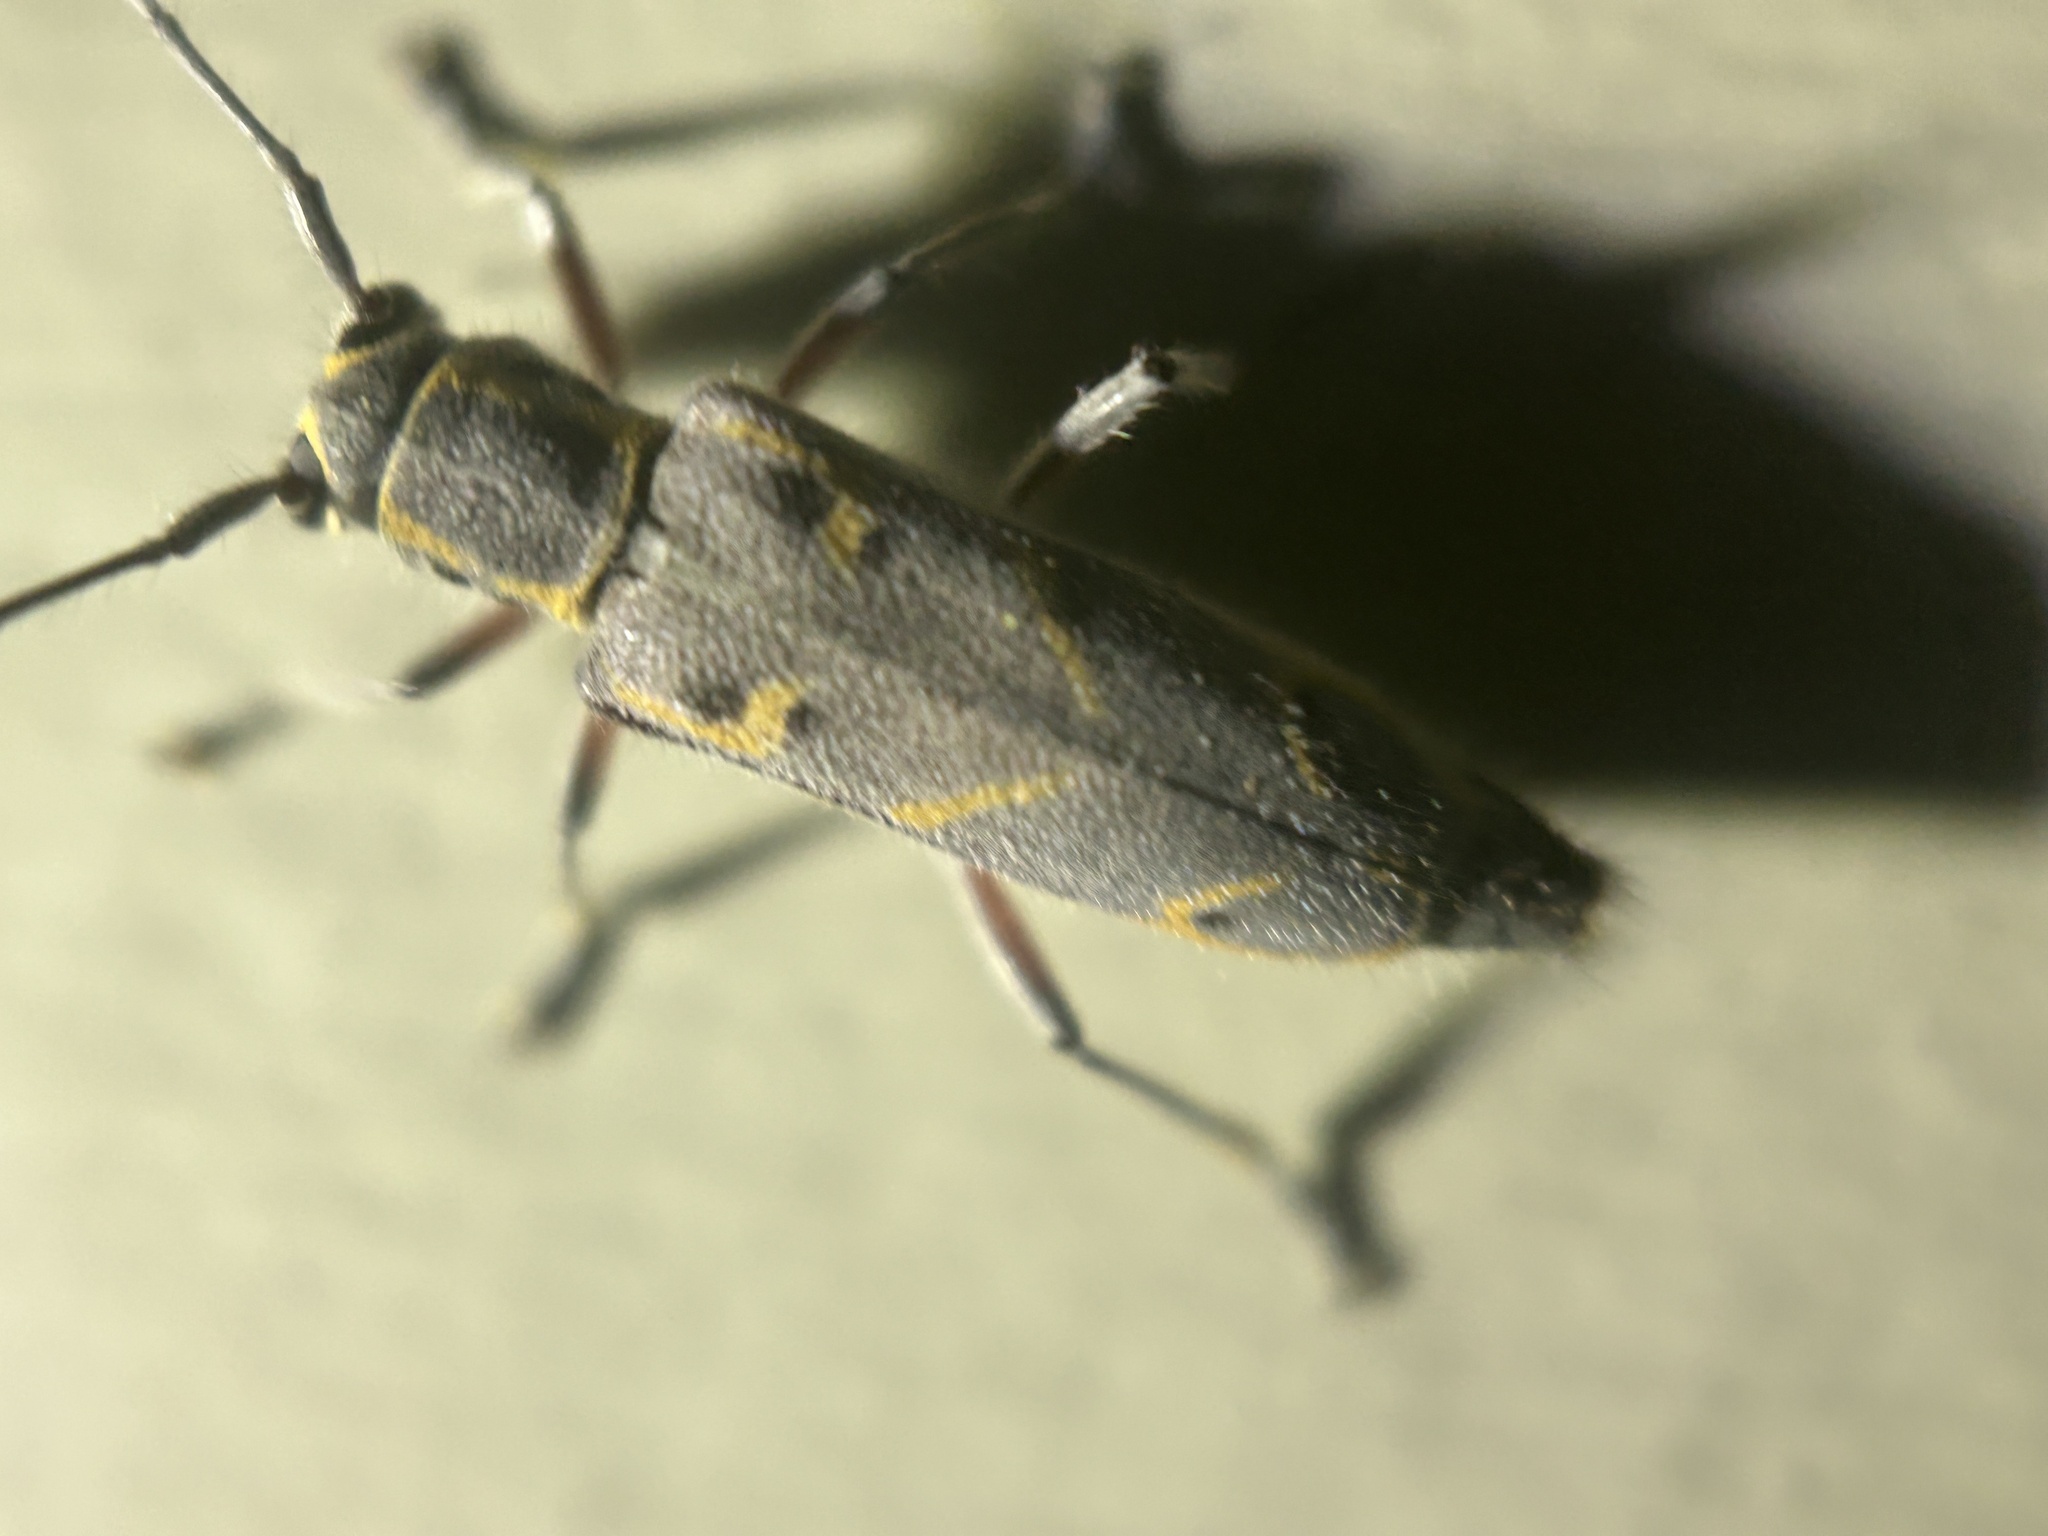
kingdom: Animalia
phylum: Arthropoda
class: Insecta
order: Coleoptera
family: Cerambycidae
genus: Saperda
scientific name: Saperda tridentata
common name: Elm borer
